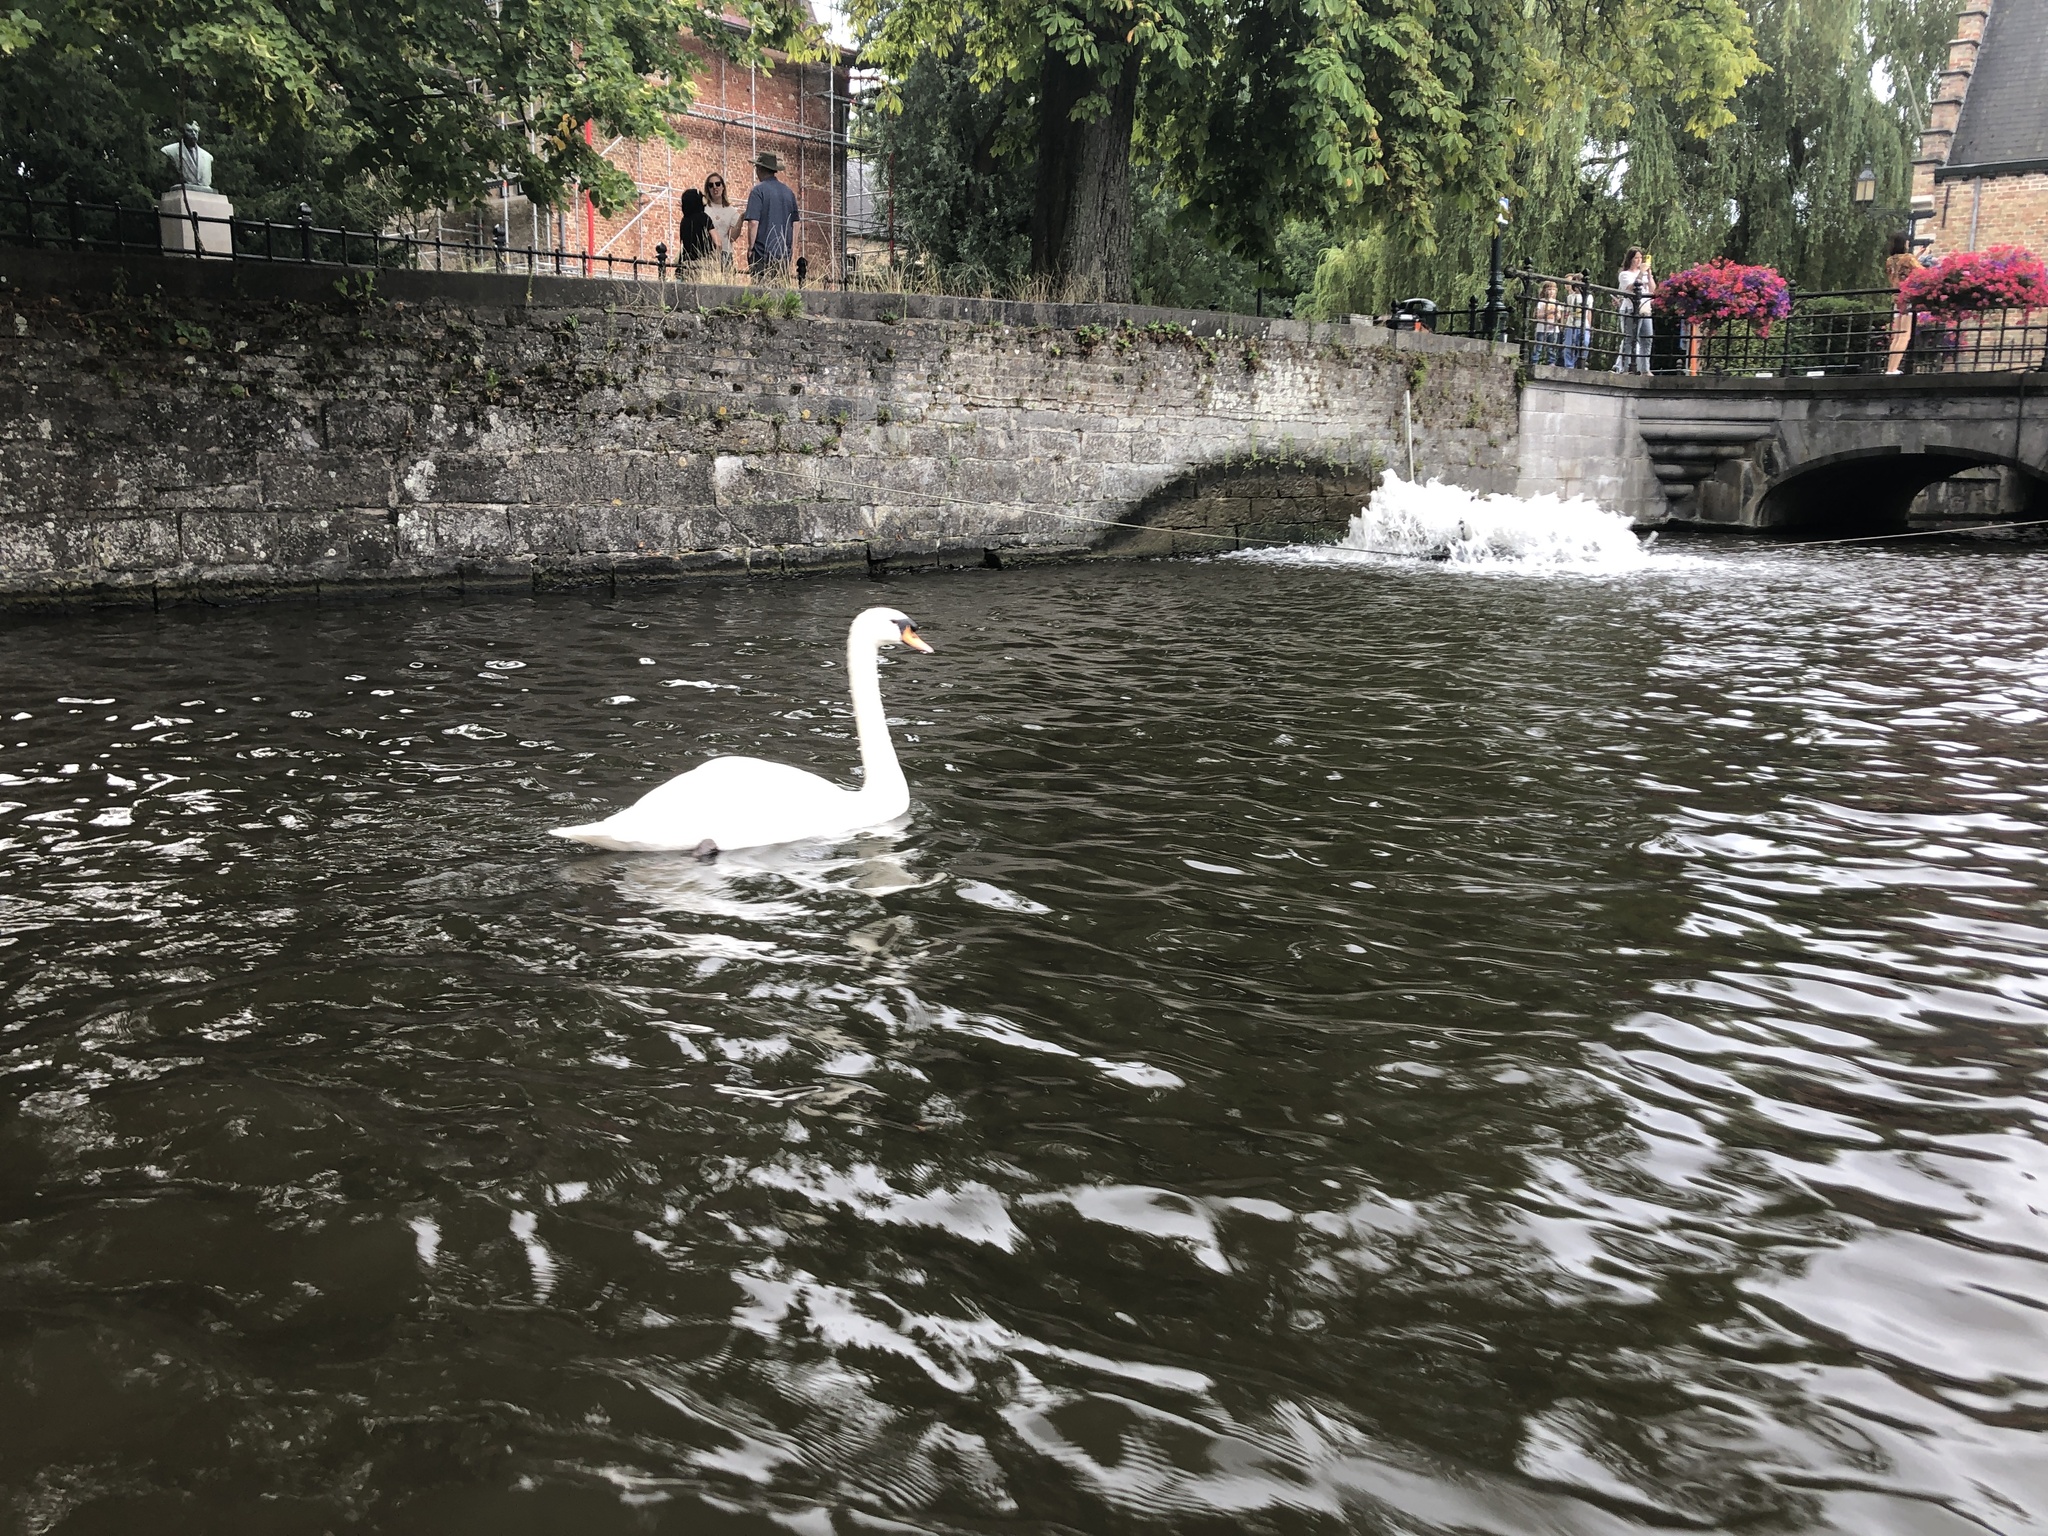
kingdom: Animalia
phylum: Chordata
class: Aves
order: Anseriformes
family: Anatidae
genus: Cygnus
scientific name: Cygnus olor
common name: Mute swan
